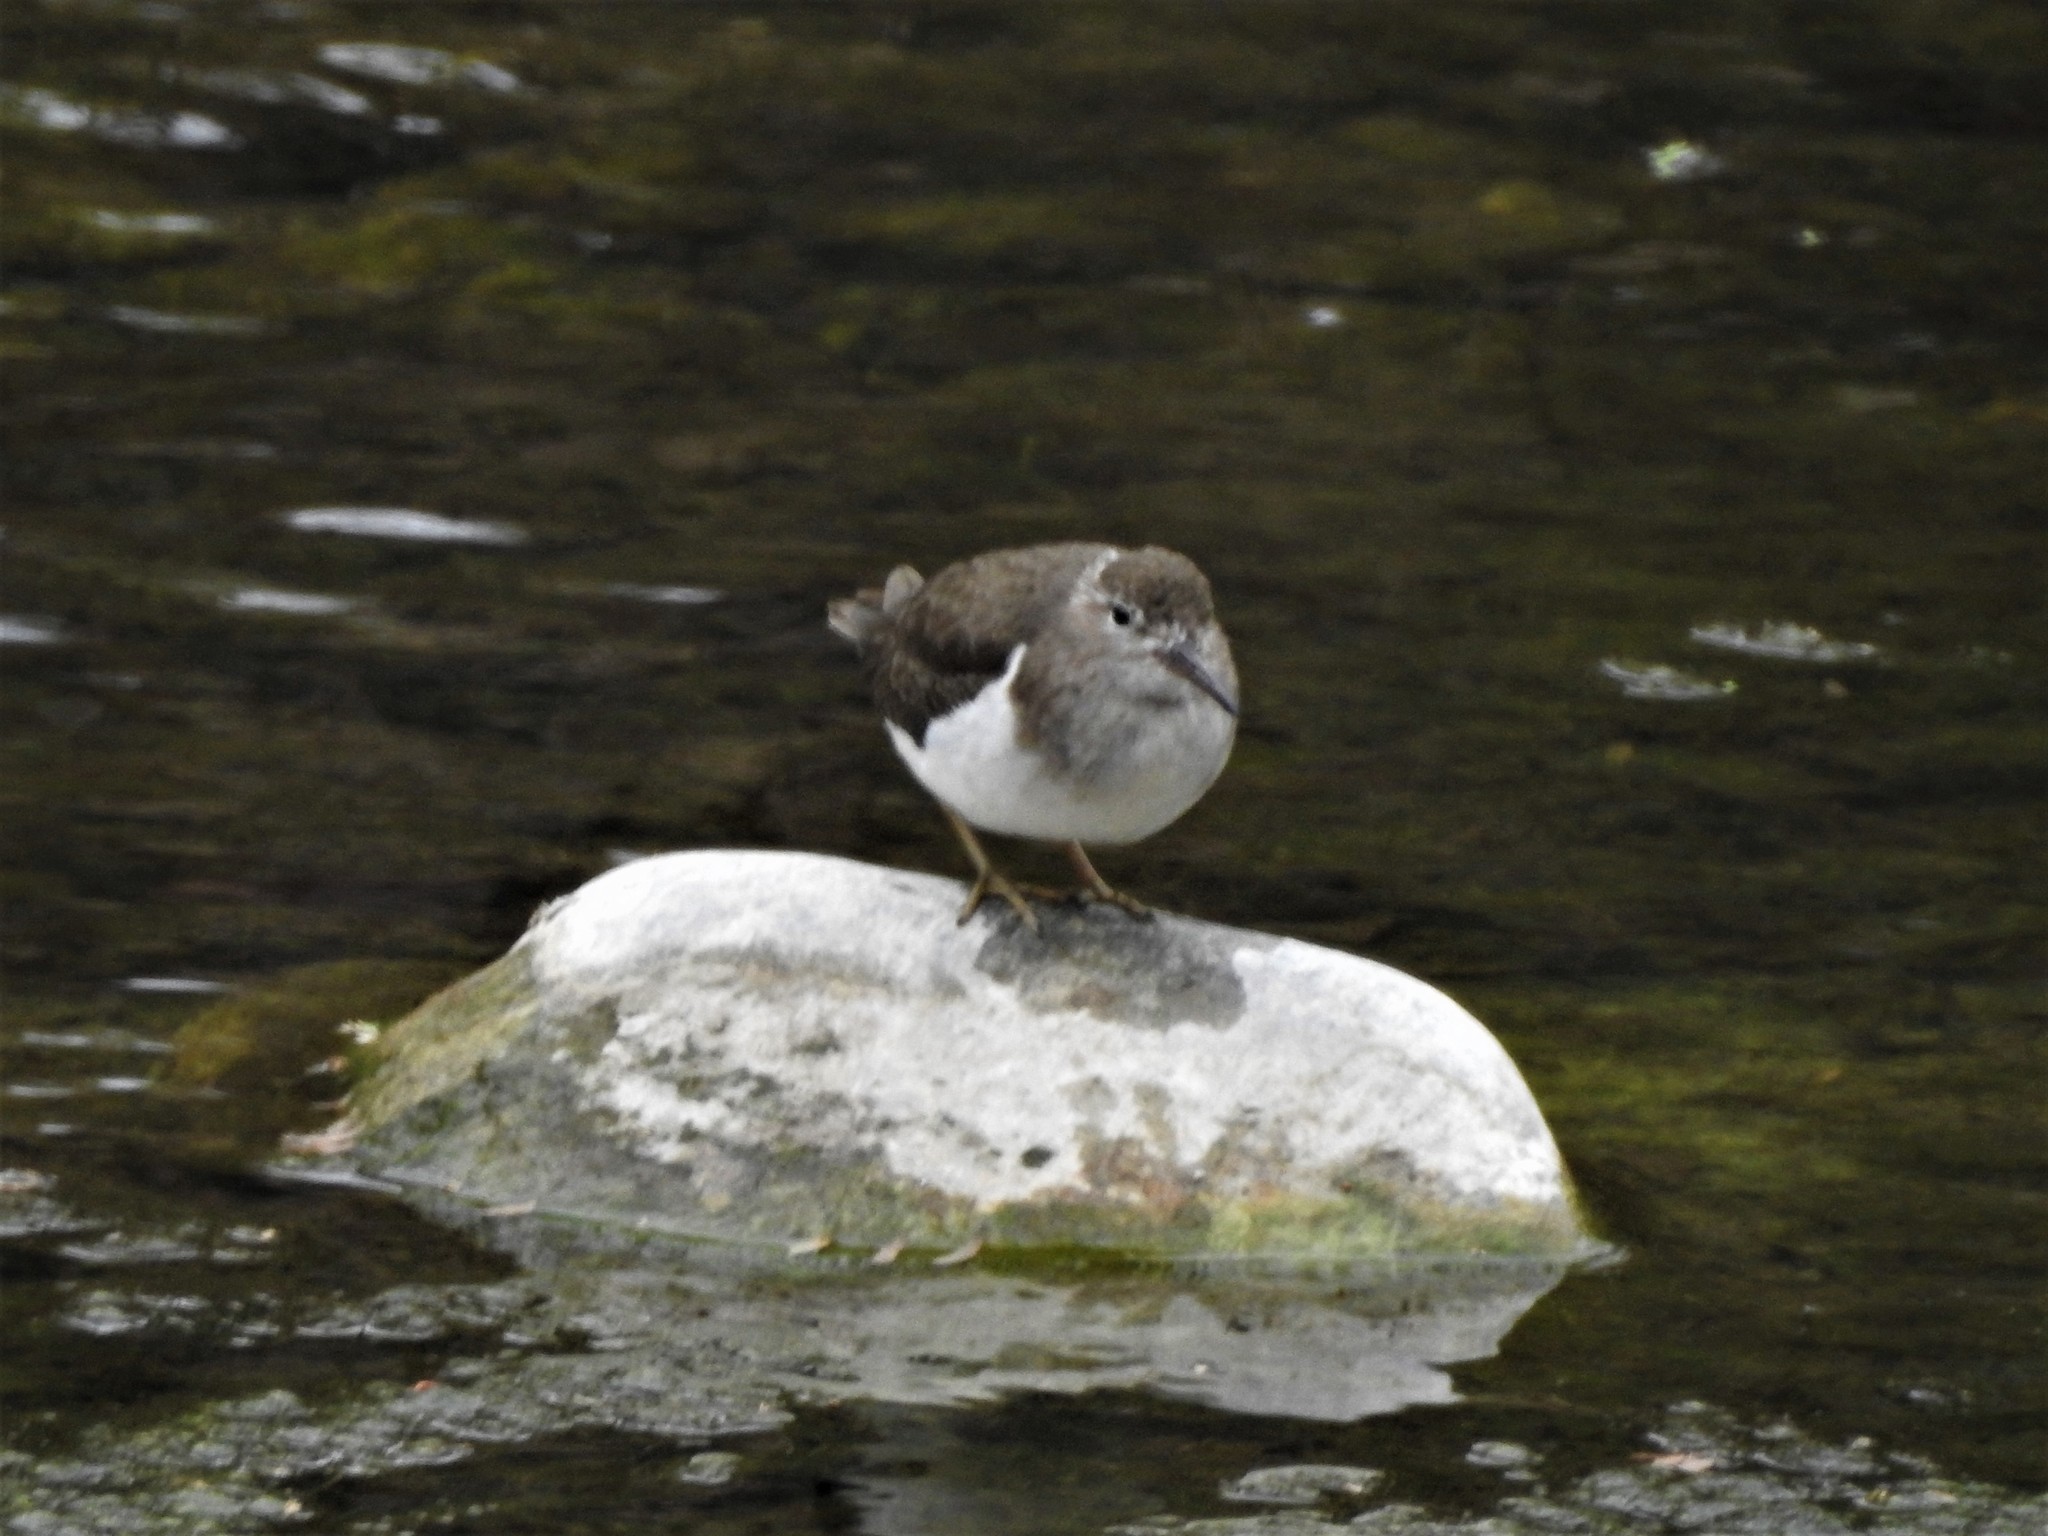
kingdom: Animalia
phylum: Chordata
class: Aves
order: Charadriiformes
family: Scolopacidae
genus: Actitis
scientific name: Actitis macularius
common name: Spotted sandpiper
